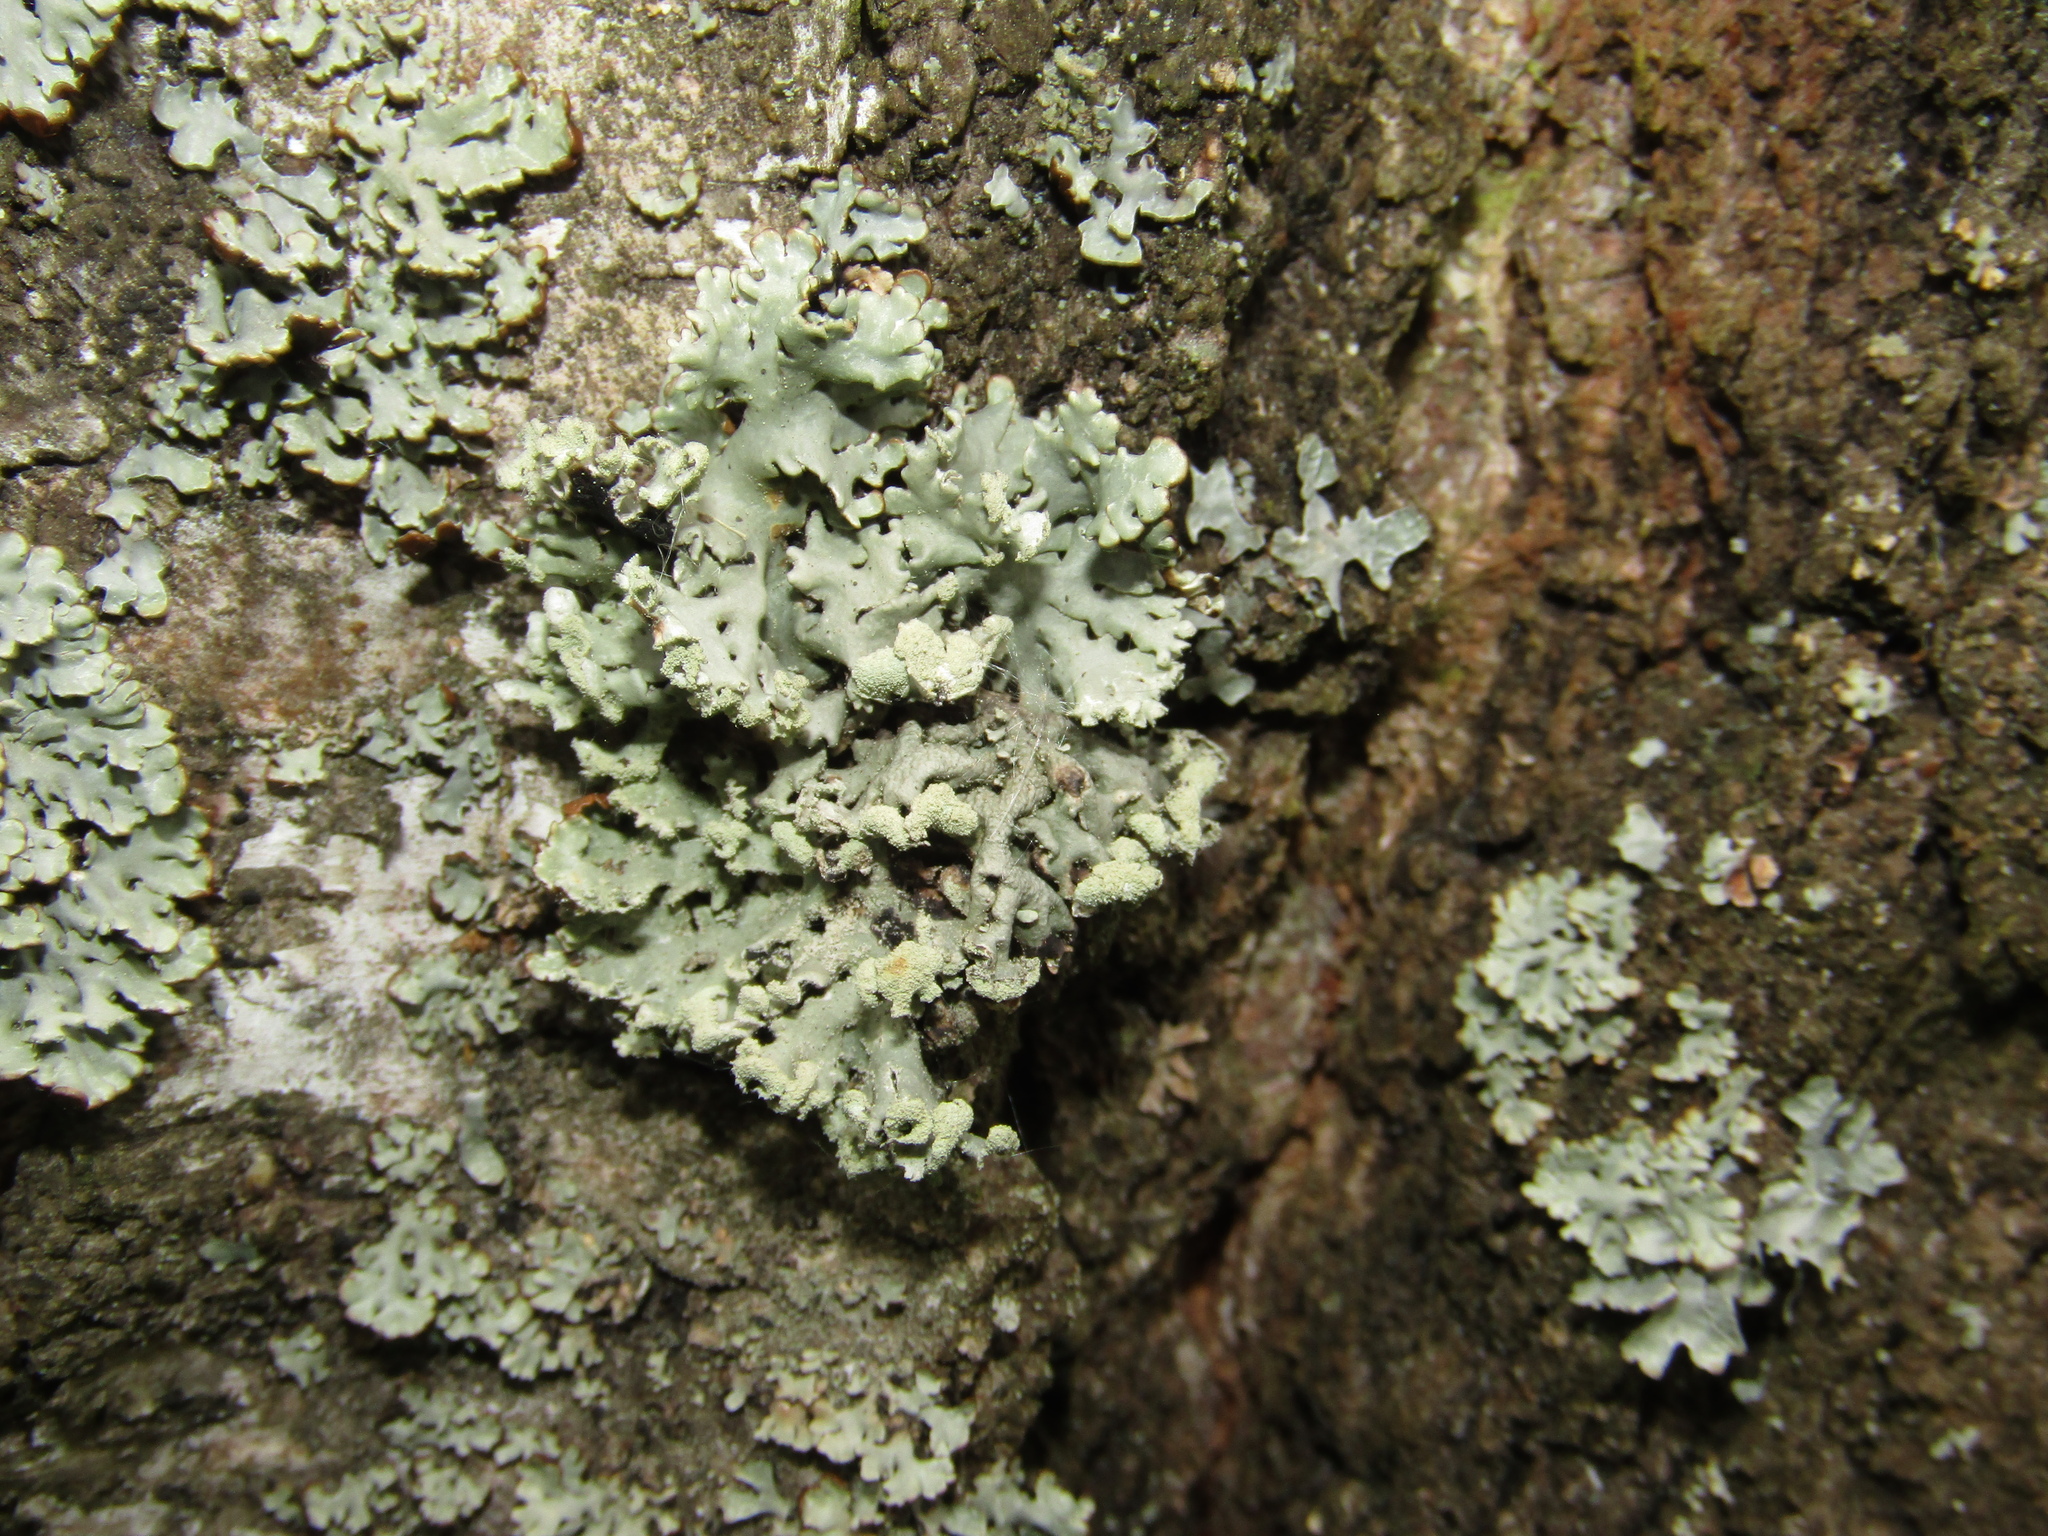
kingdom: Fungi
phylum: Ascomycota
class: Lecanoromycetes
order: Lecanorales
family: Parmeliaceae
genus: Hypogymnia
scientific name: Hypogymnia physodes
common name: Dark crottle
